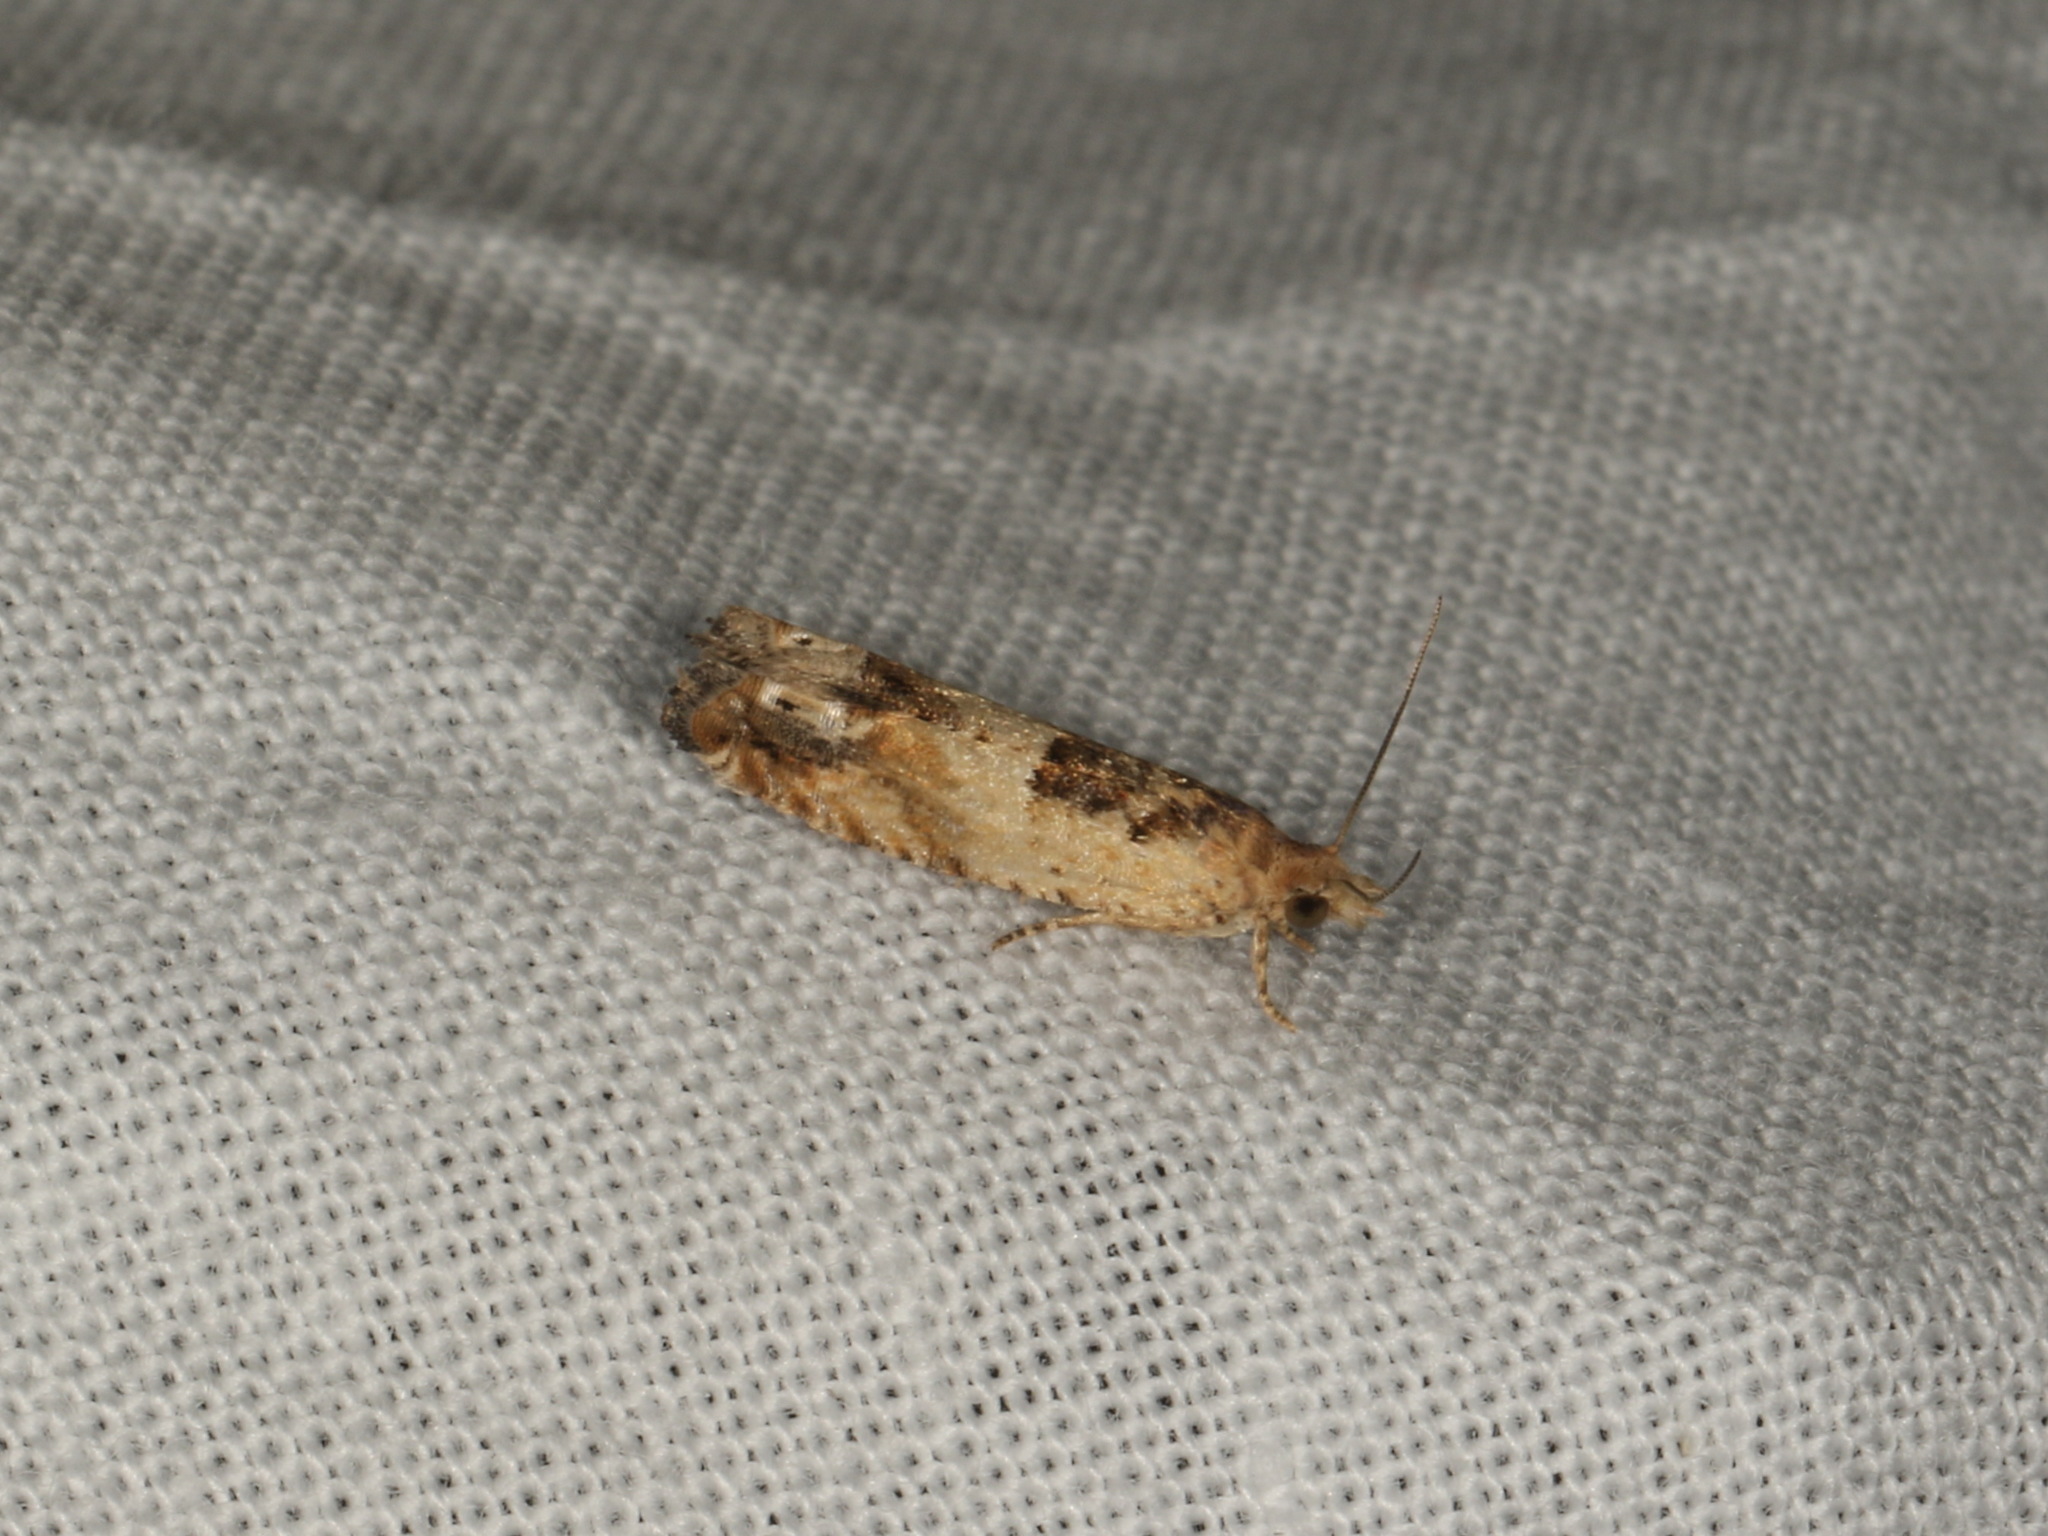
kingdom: Animalia
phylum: Arthropoda
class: Insecta
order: Lepidoptera
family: Tortricidae
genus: Crocidosema
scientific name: Crocidosema plebejana
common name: Southern bell
